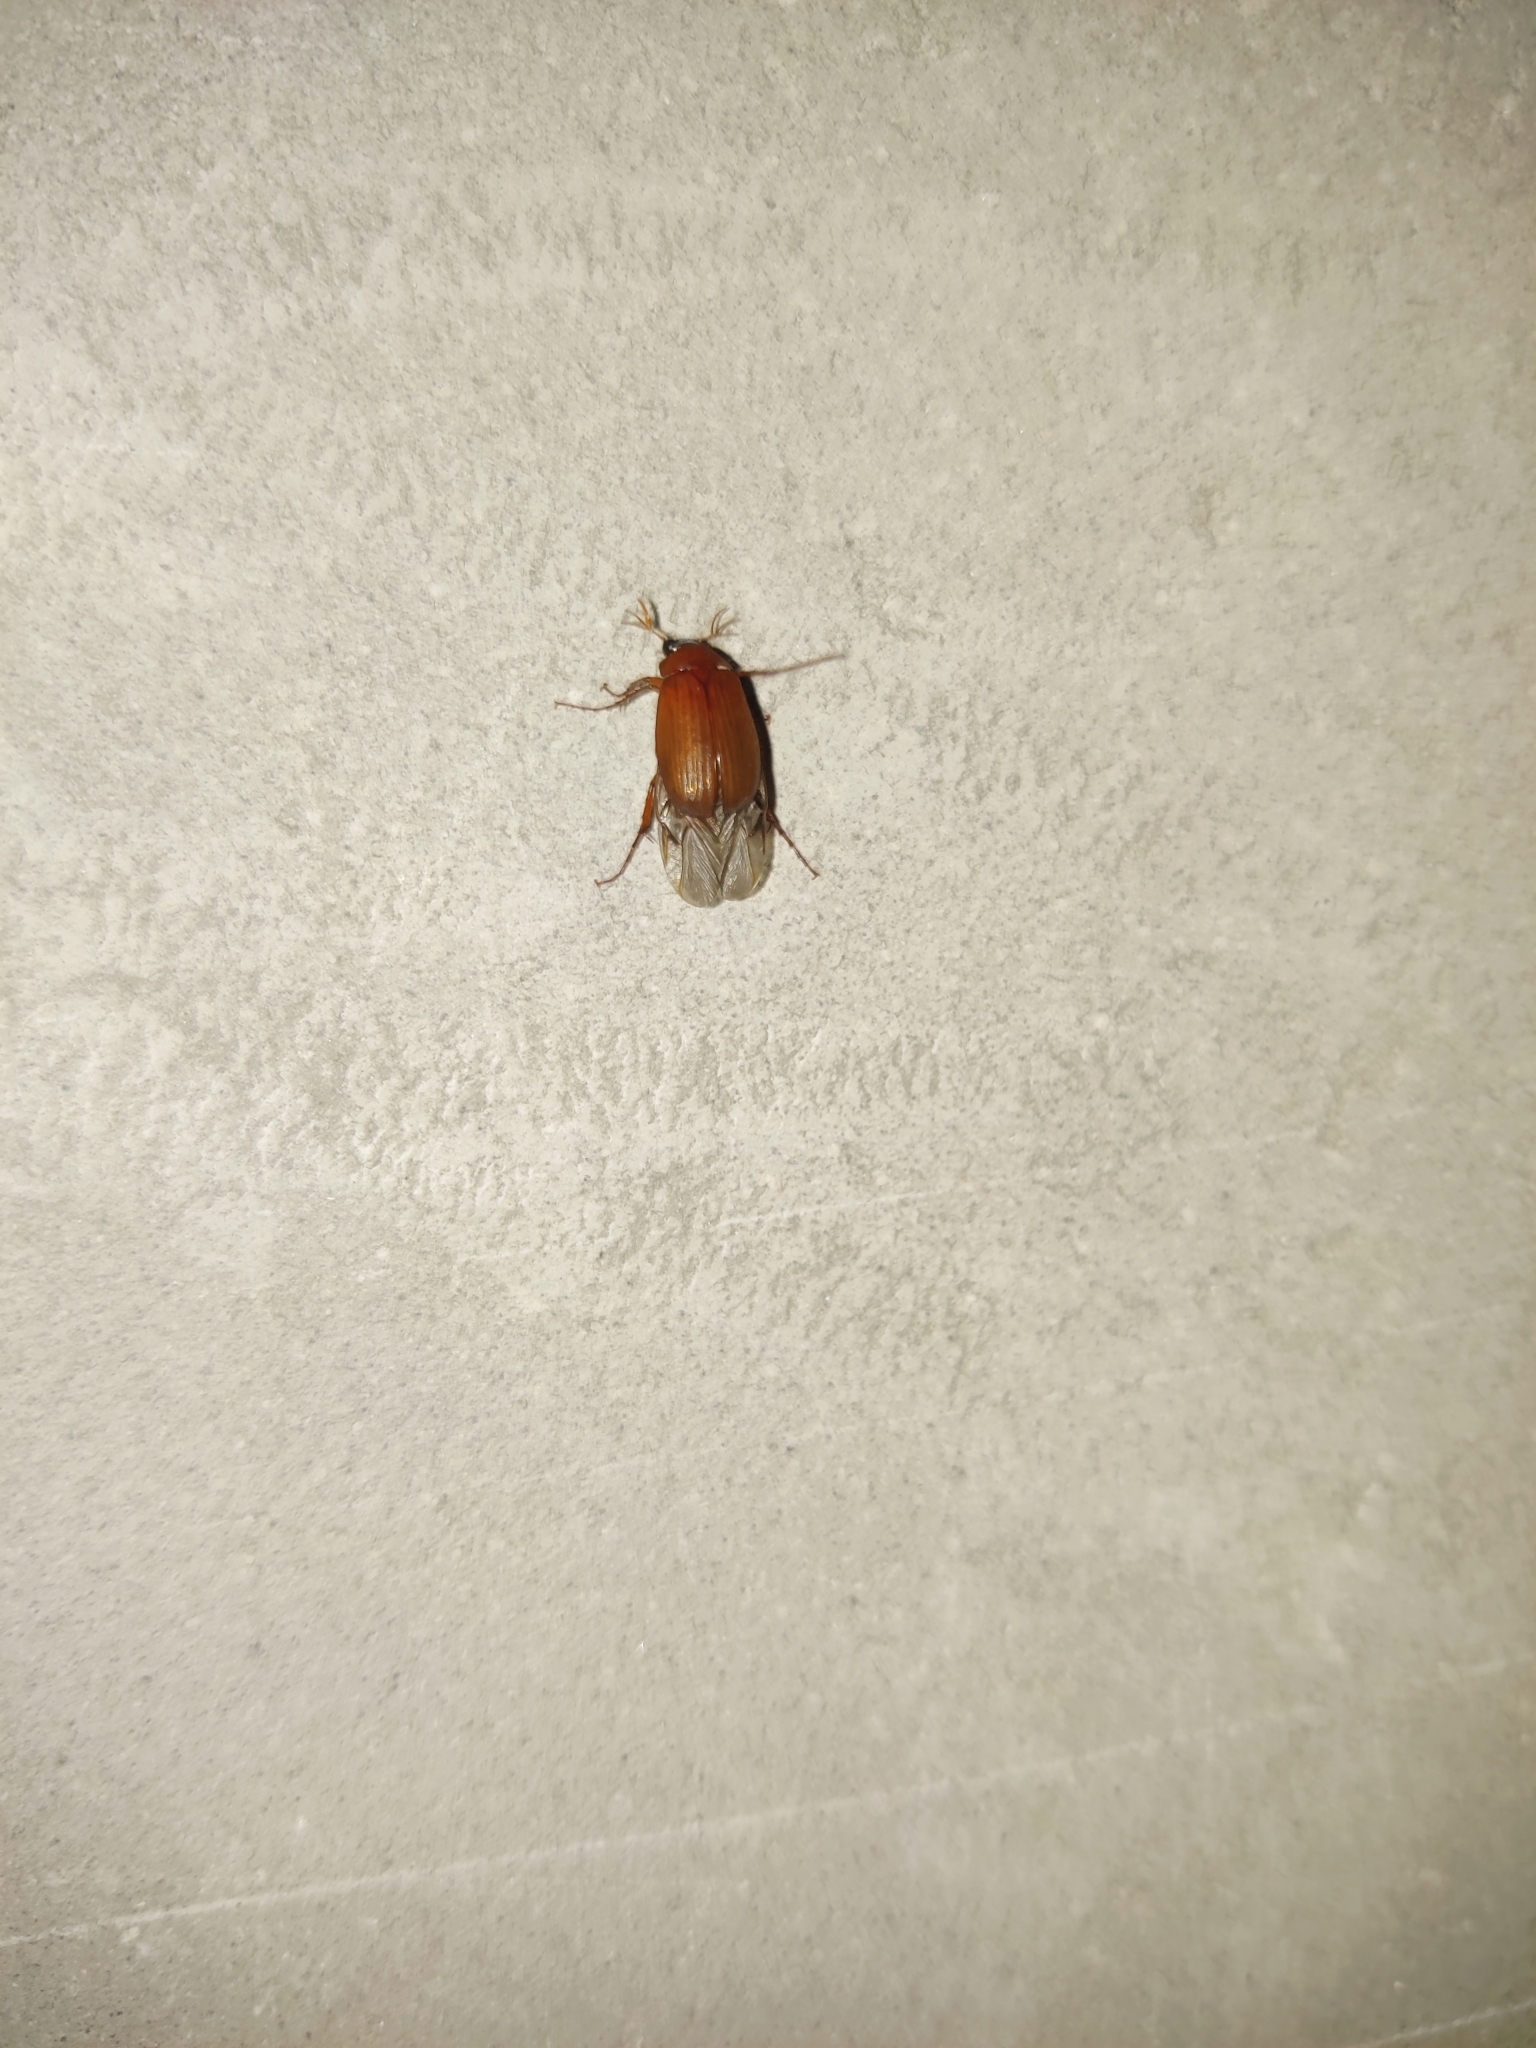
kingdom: Animalia
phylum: Arthropoda
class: Insecta
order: Coleoptera
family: Scarabaeidae
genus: Serica
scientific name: Serica brunnea
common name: Brown chafer
